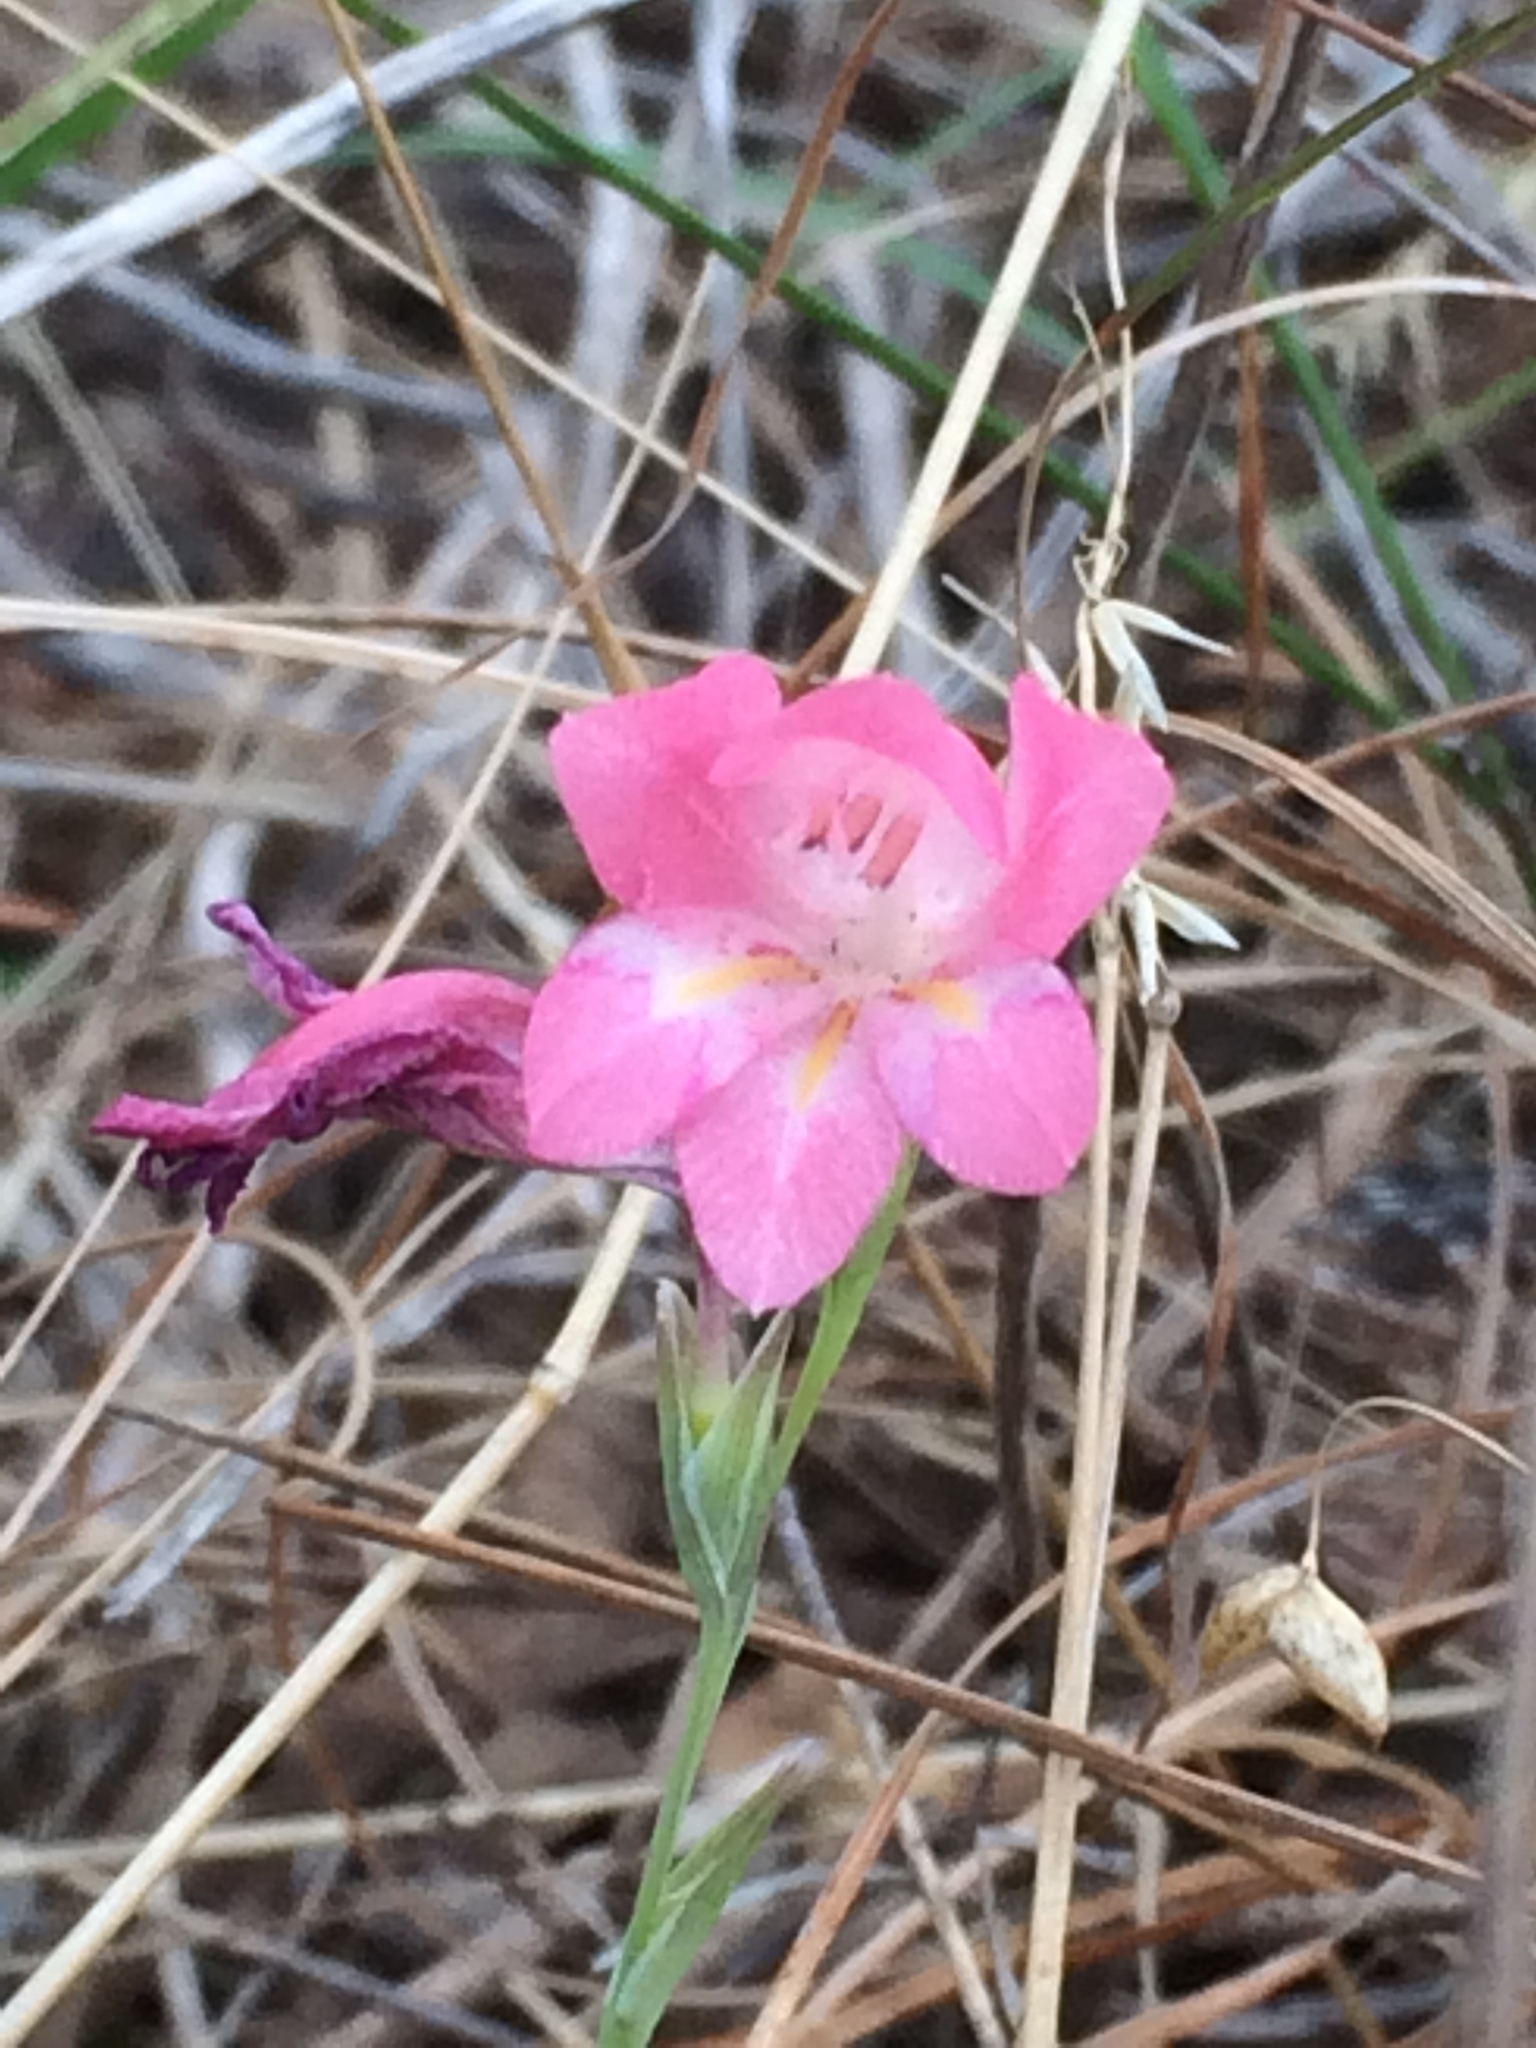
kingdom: Plantae
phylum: Tracheophyta
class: Liliopsida
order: Asparagales
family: Iridaceae
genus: Gladiolus
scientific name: Gladiolus brevifolius
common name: March pypie
